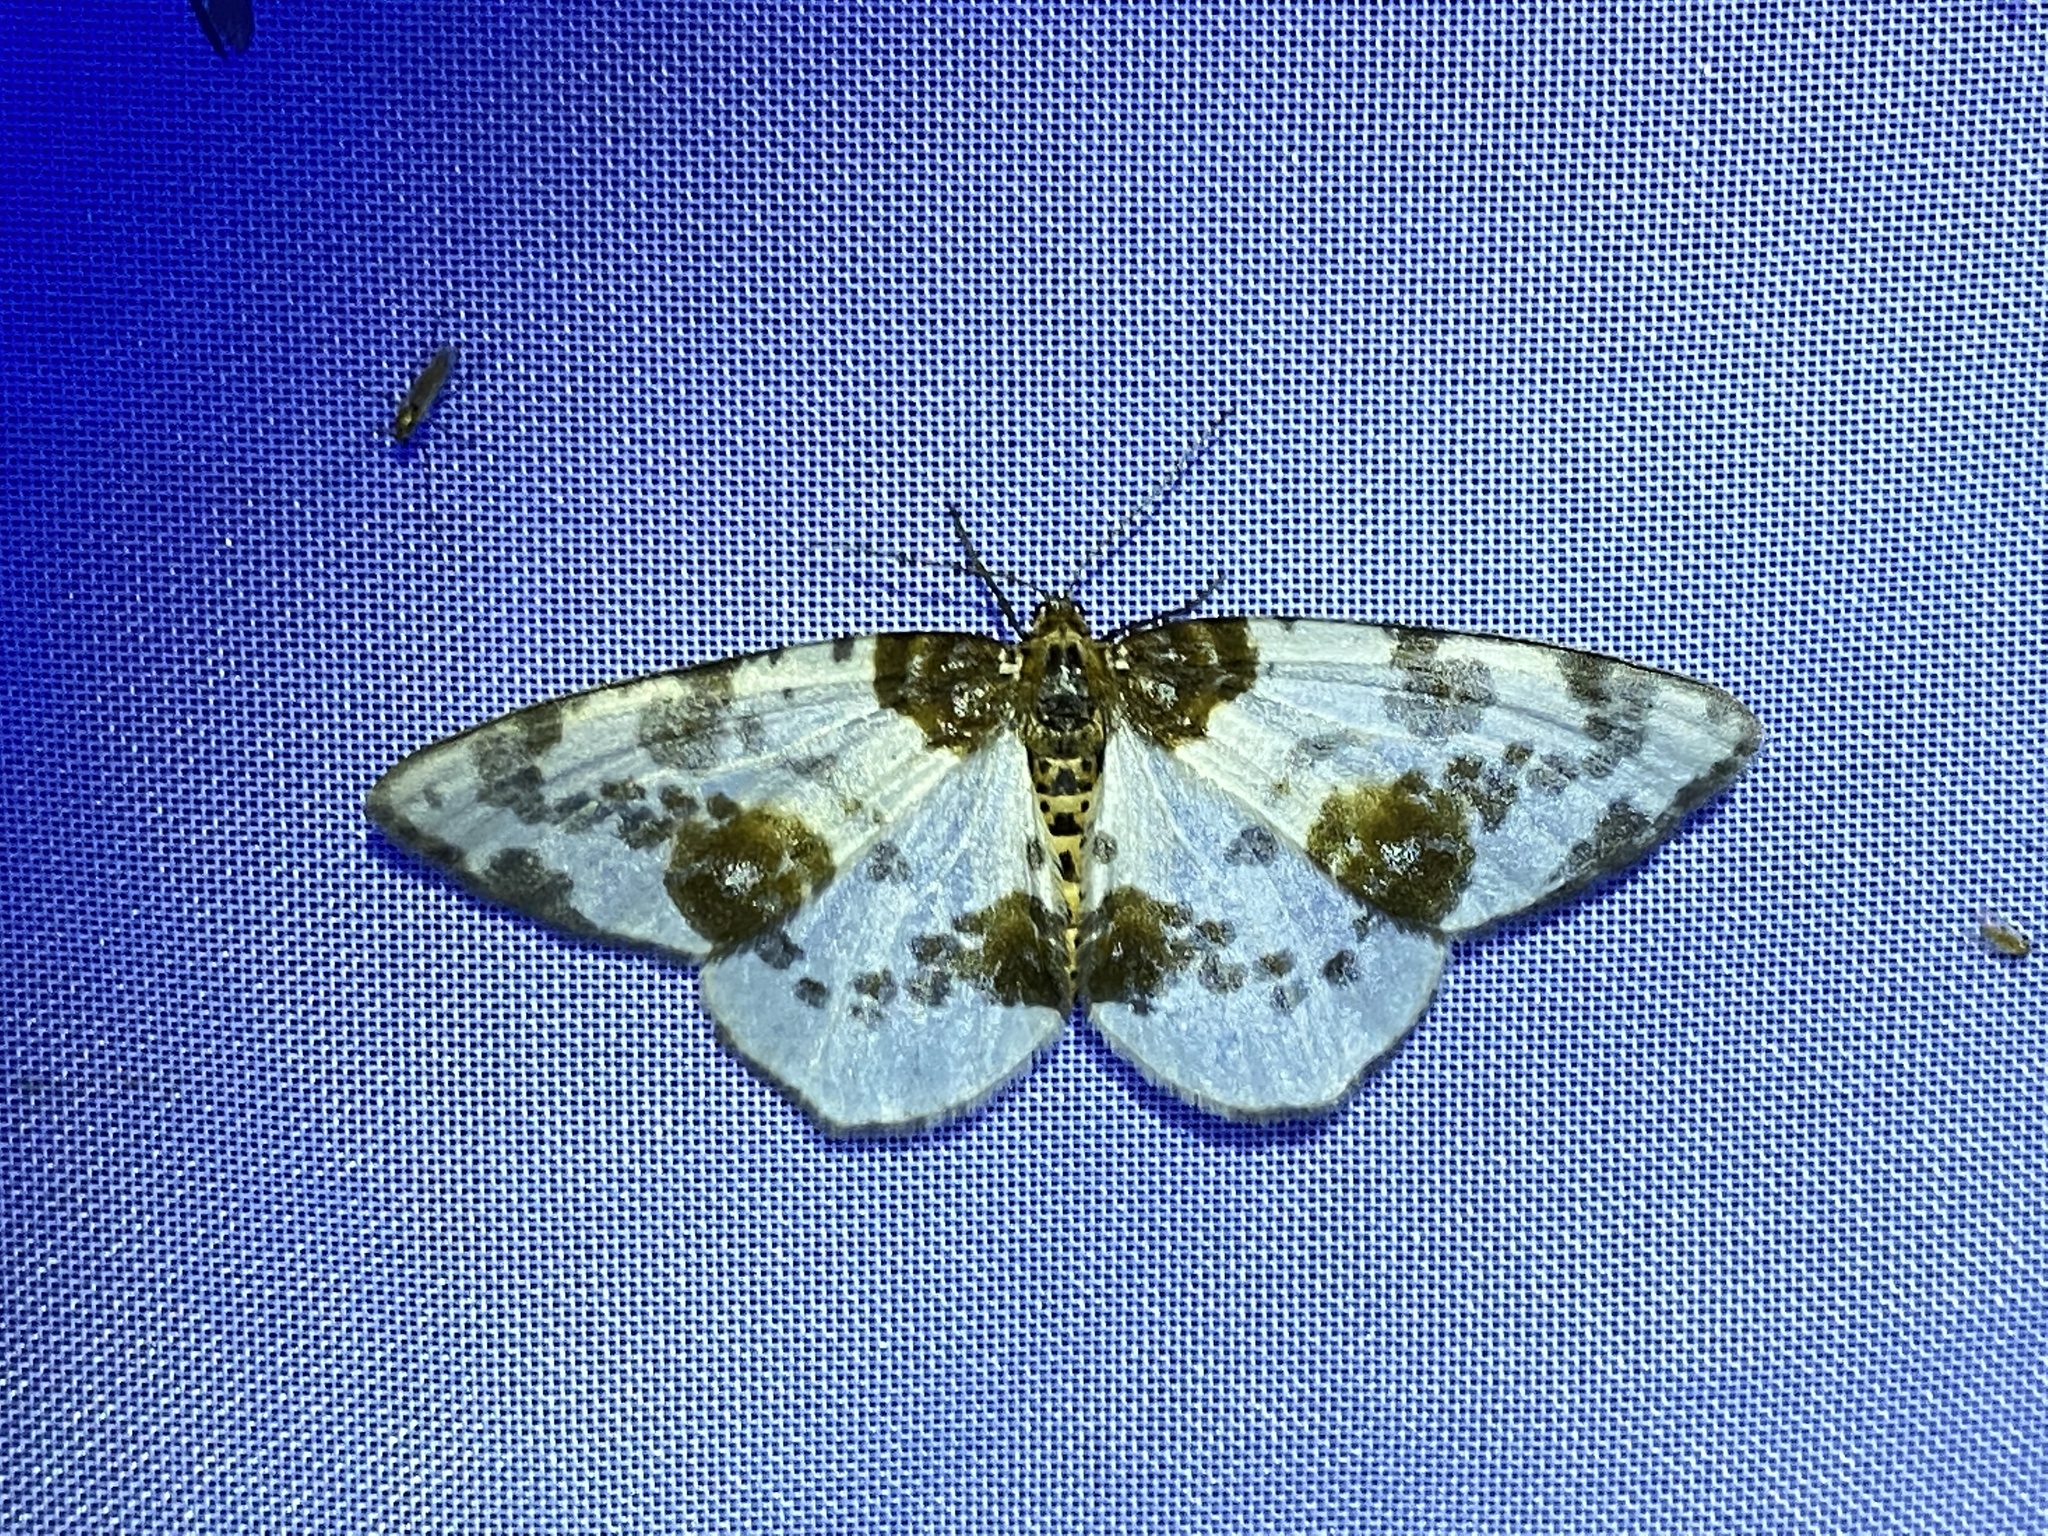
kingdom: Animalia
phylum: Arthropoda
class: Insecta
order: Lepidoptera
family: Geometridae
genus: Abraxas
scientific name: Abraxas sylvata
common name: Clouded magpie
